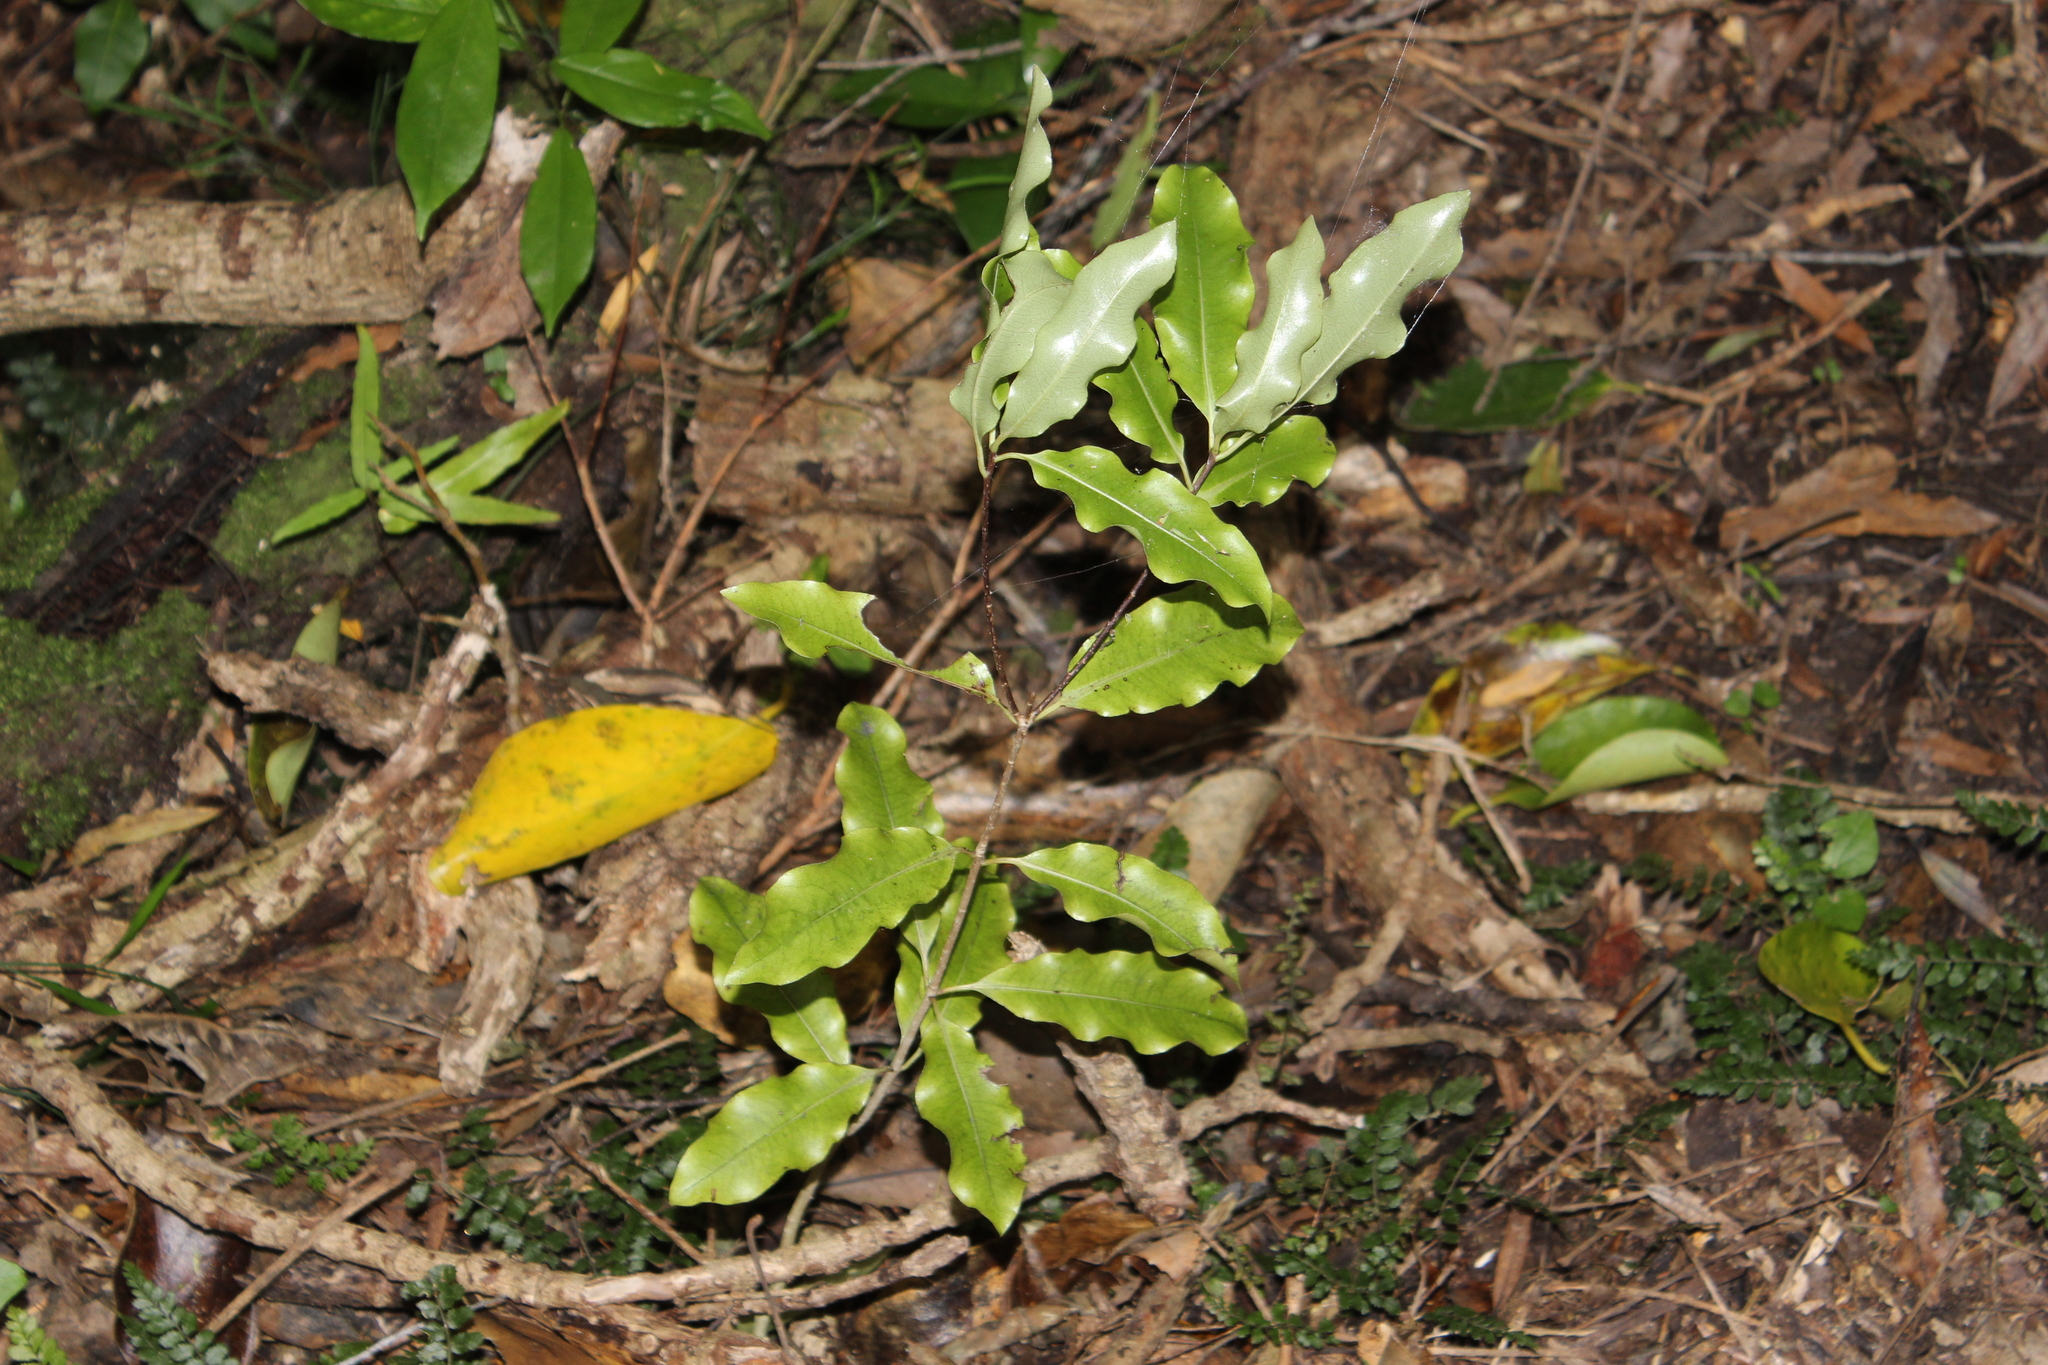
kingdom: Plantae
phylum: Tracheophyta
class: Magnoliopsida
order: Apiales
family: Pittosporaceae
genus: Pittosporum
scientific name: Pittosporum eugenioides
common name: Lemonwood
